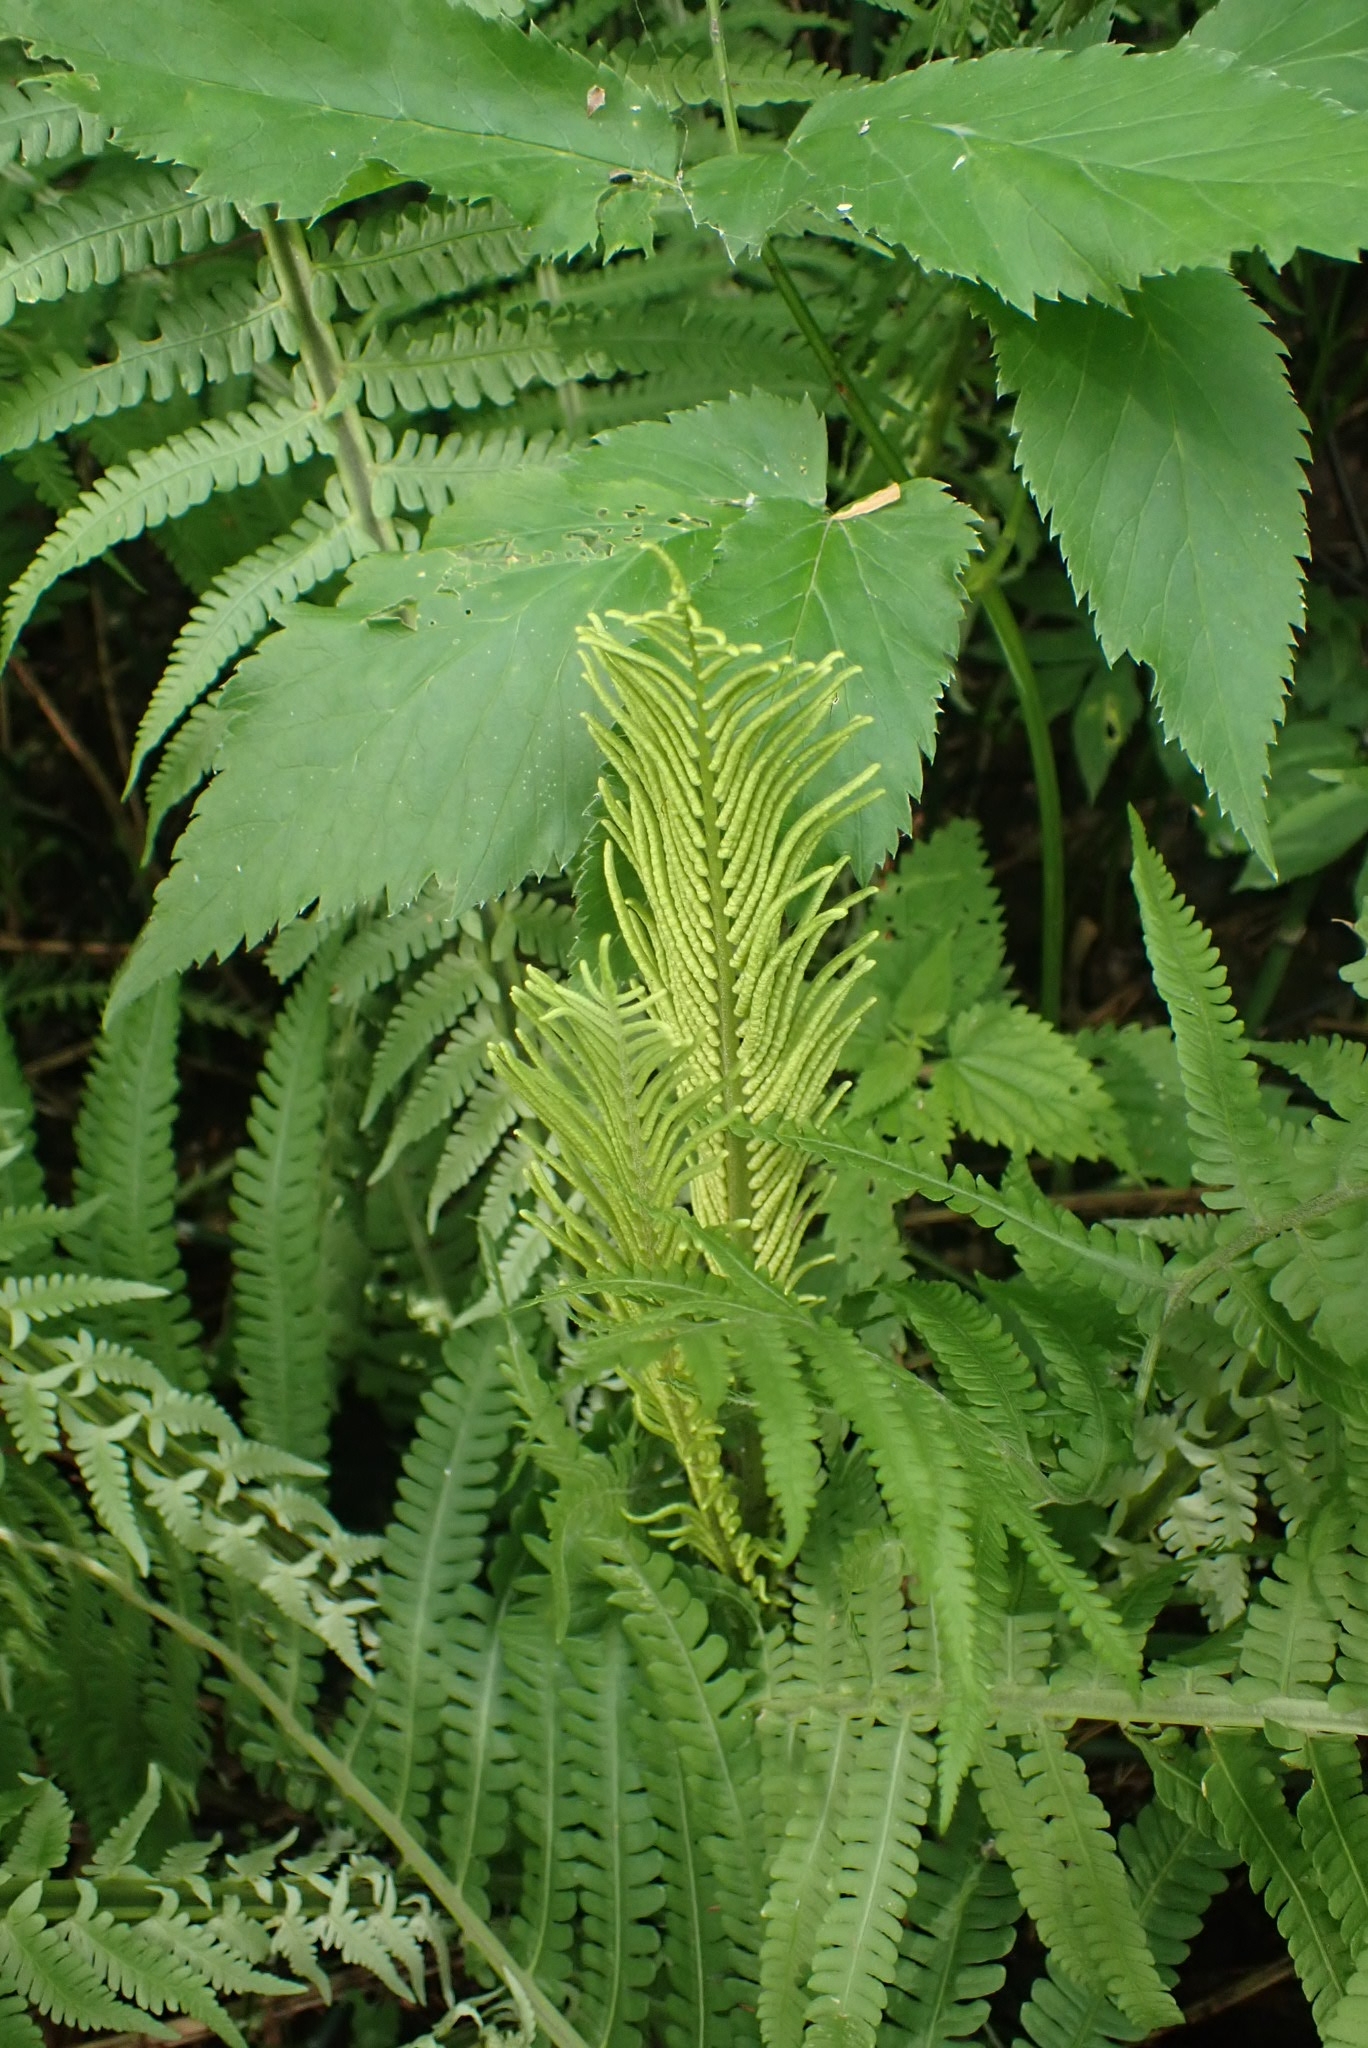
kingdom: Plantae
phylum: Tracheophyta
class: Polypodiopsida
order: Polypodiales
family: Onocleaceae
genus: Matteuccia
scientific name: Matteuccia struthiopteris
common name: Ostrich fern
